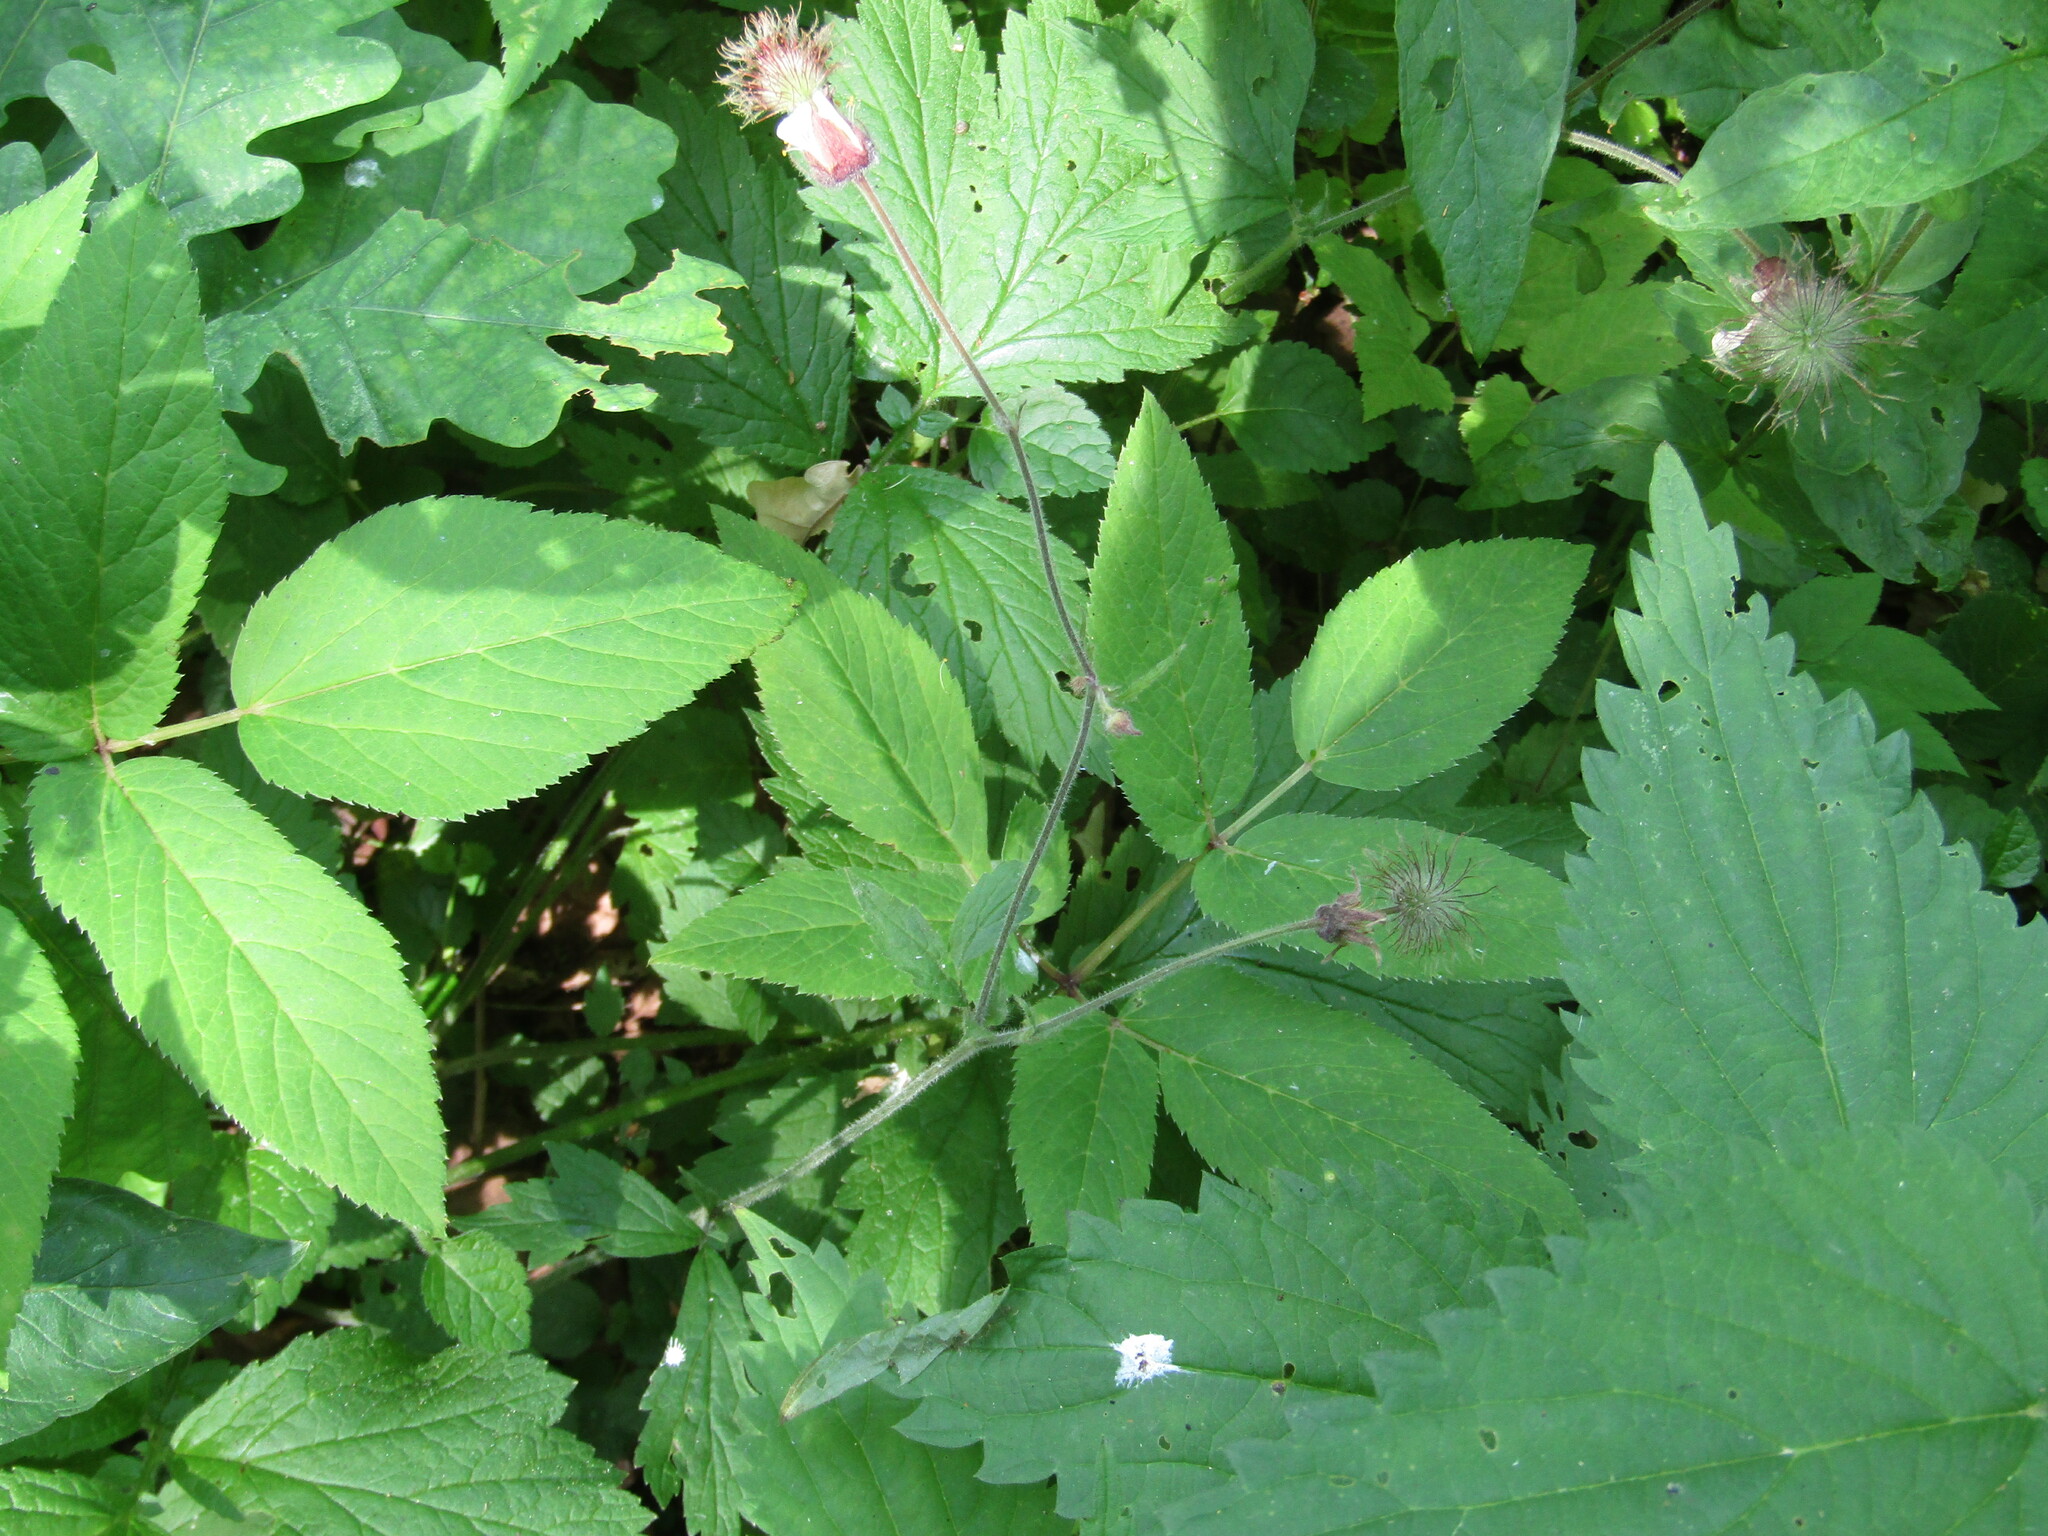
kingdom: Plantae
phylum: Tracheophyta
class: Magnoliopsida
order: Rosales
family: Rosaceae
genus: Geum
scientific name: Geum rivale
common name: Water avens
